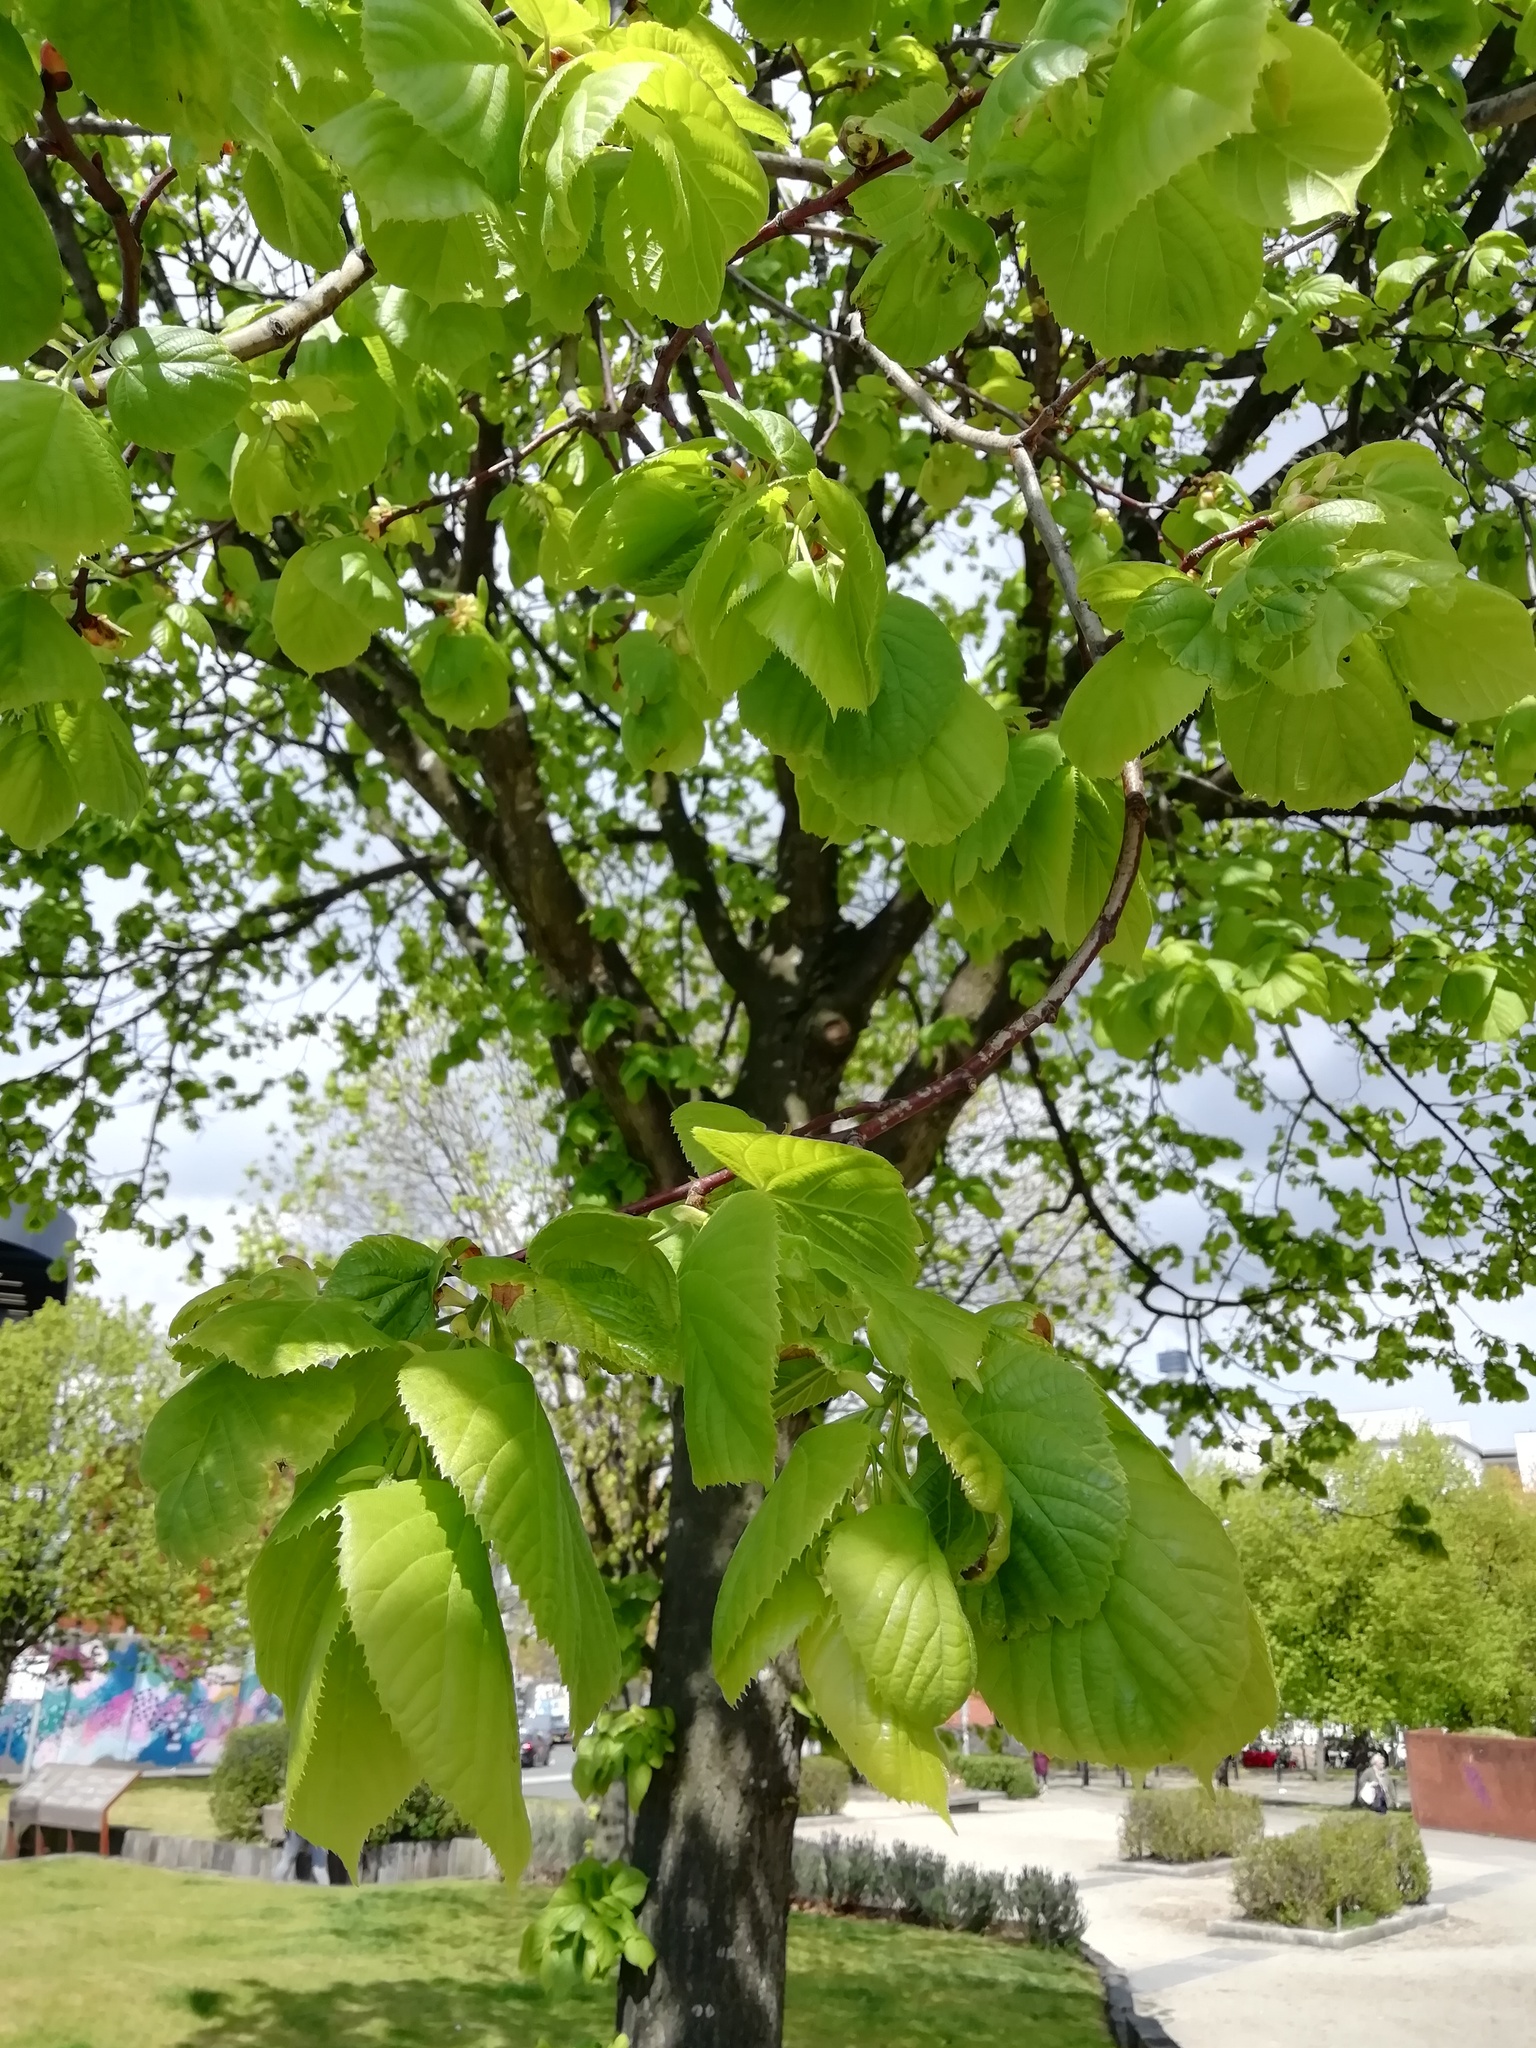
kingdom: Plantae
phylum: Tracheophyta
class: Magnoliopsida
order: Malvales
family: Malvaceae
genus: Tilia
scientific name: Tilia europaea
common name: European linden
